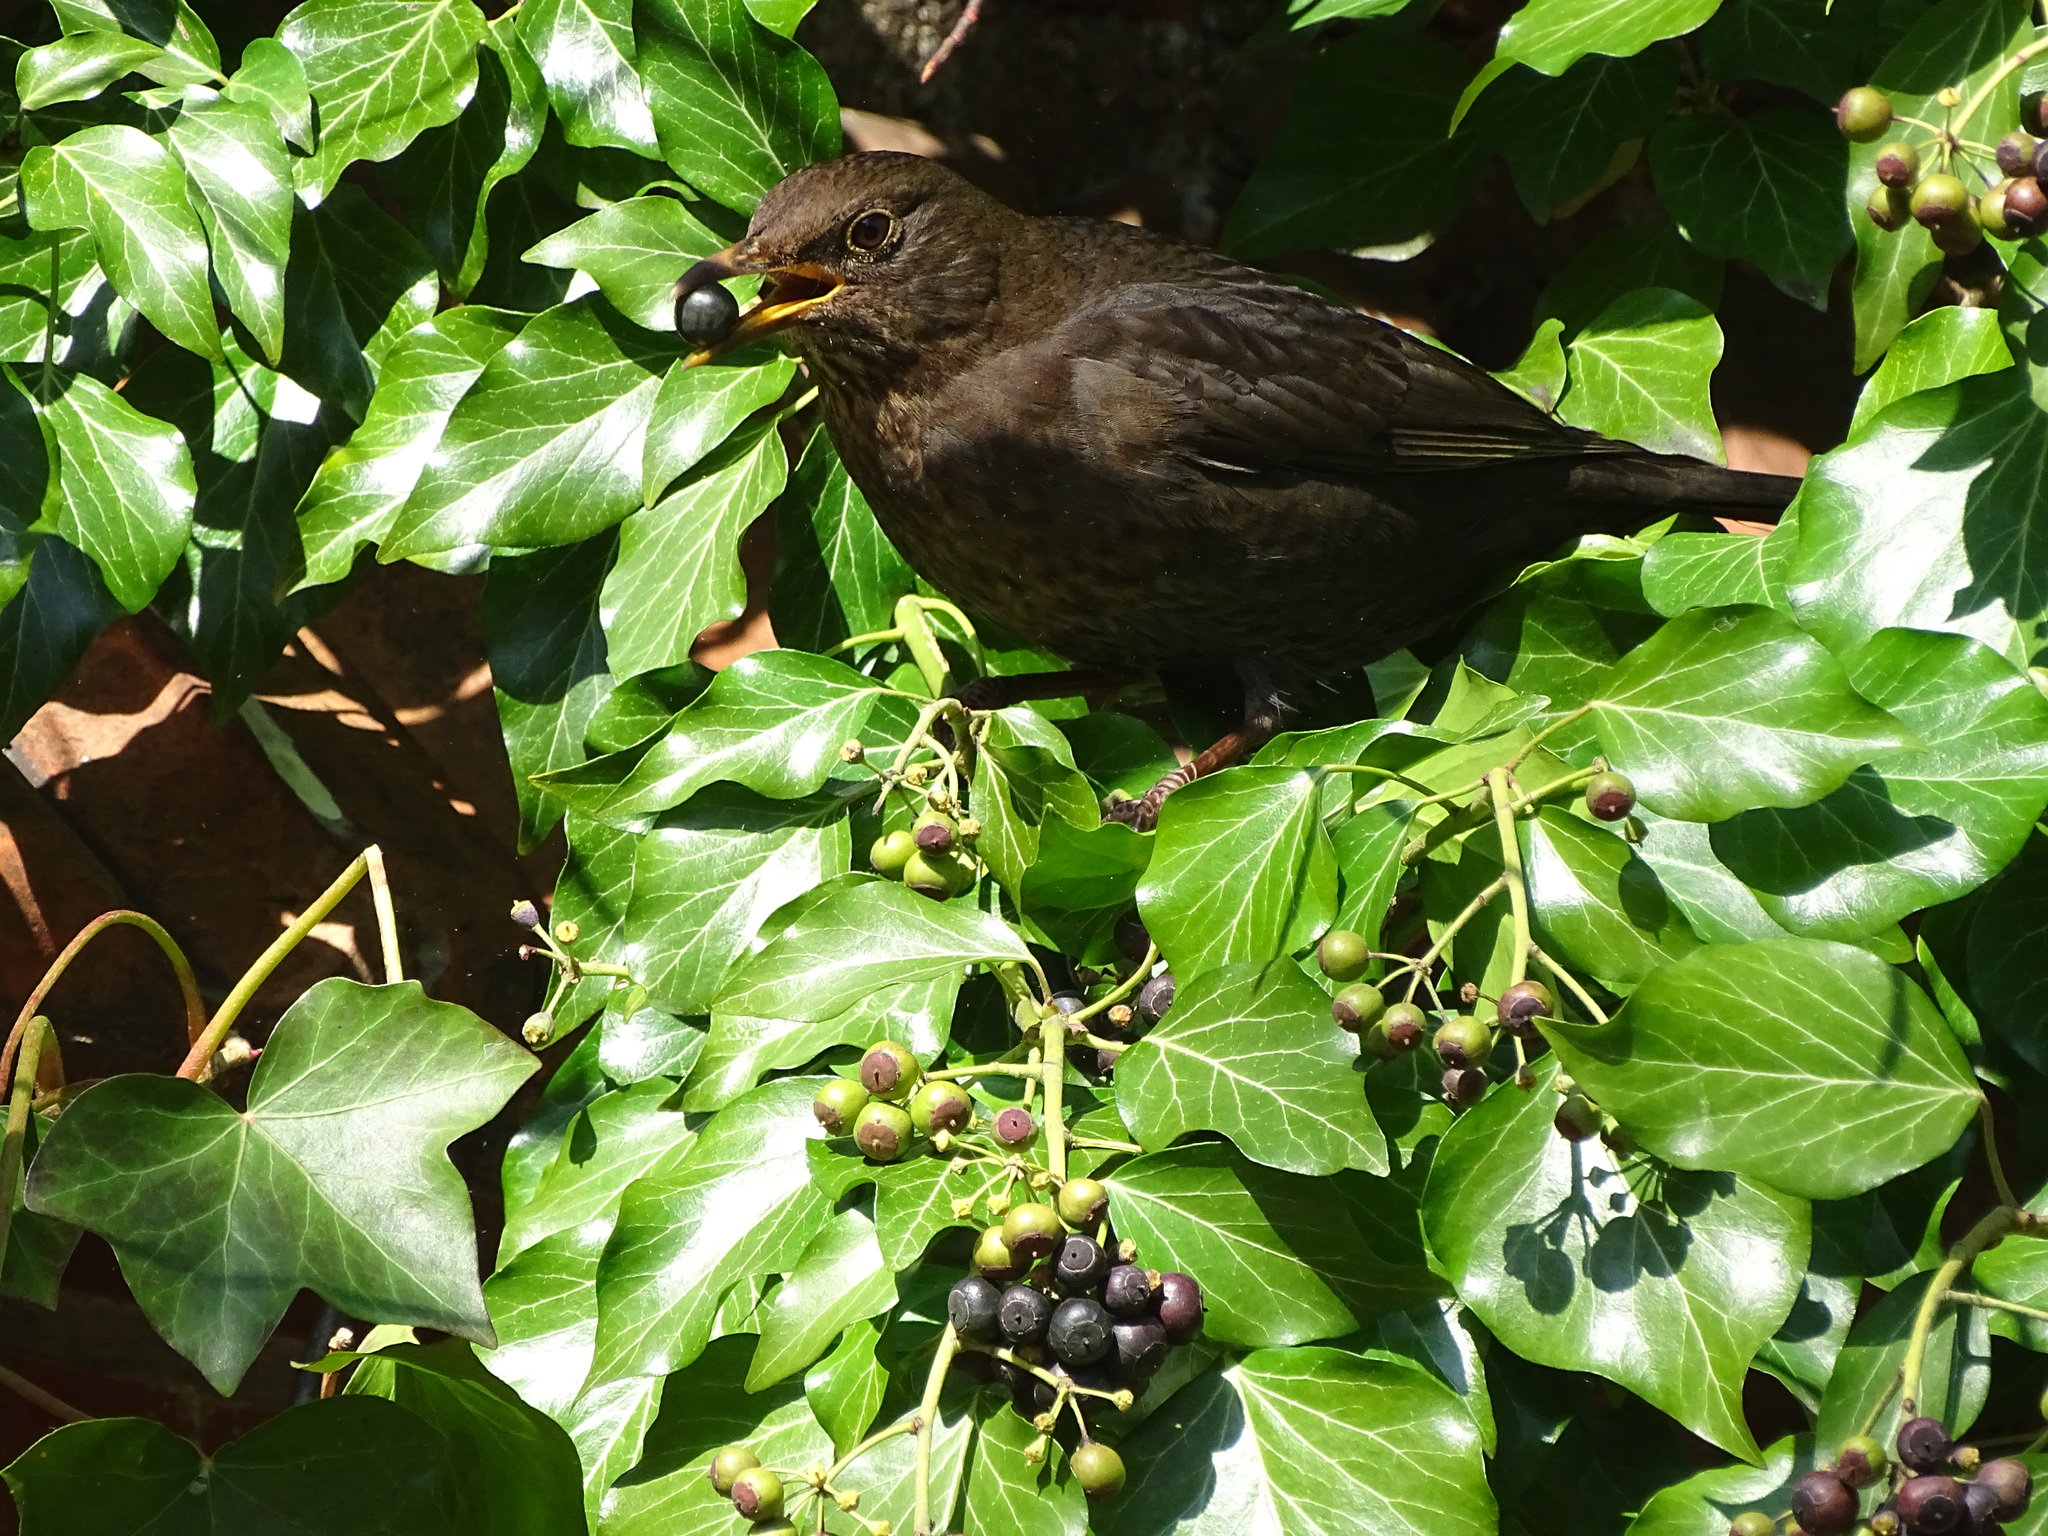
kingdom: Animalia
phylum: Chordata
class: Aves
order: Passeriformes
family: Turdidae
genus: Turdus
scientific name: Turdus merula
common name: Common blackbird
